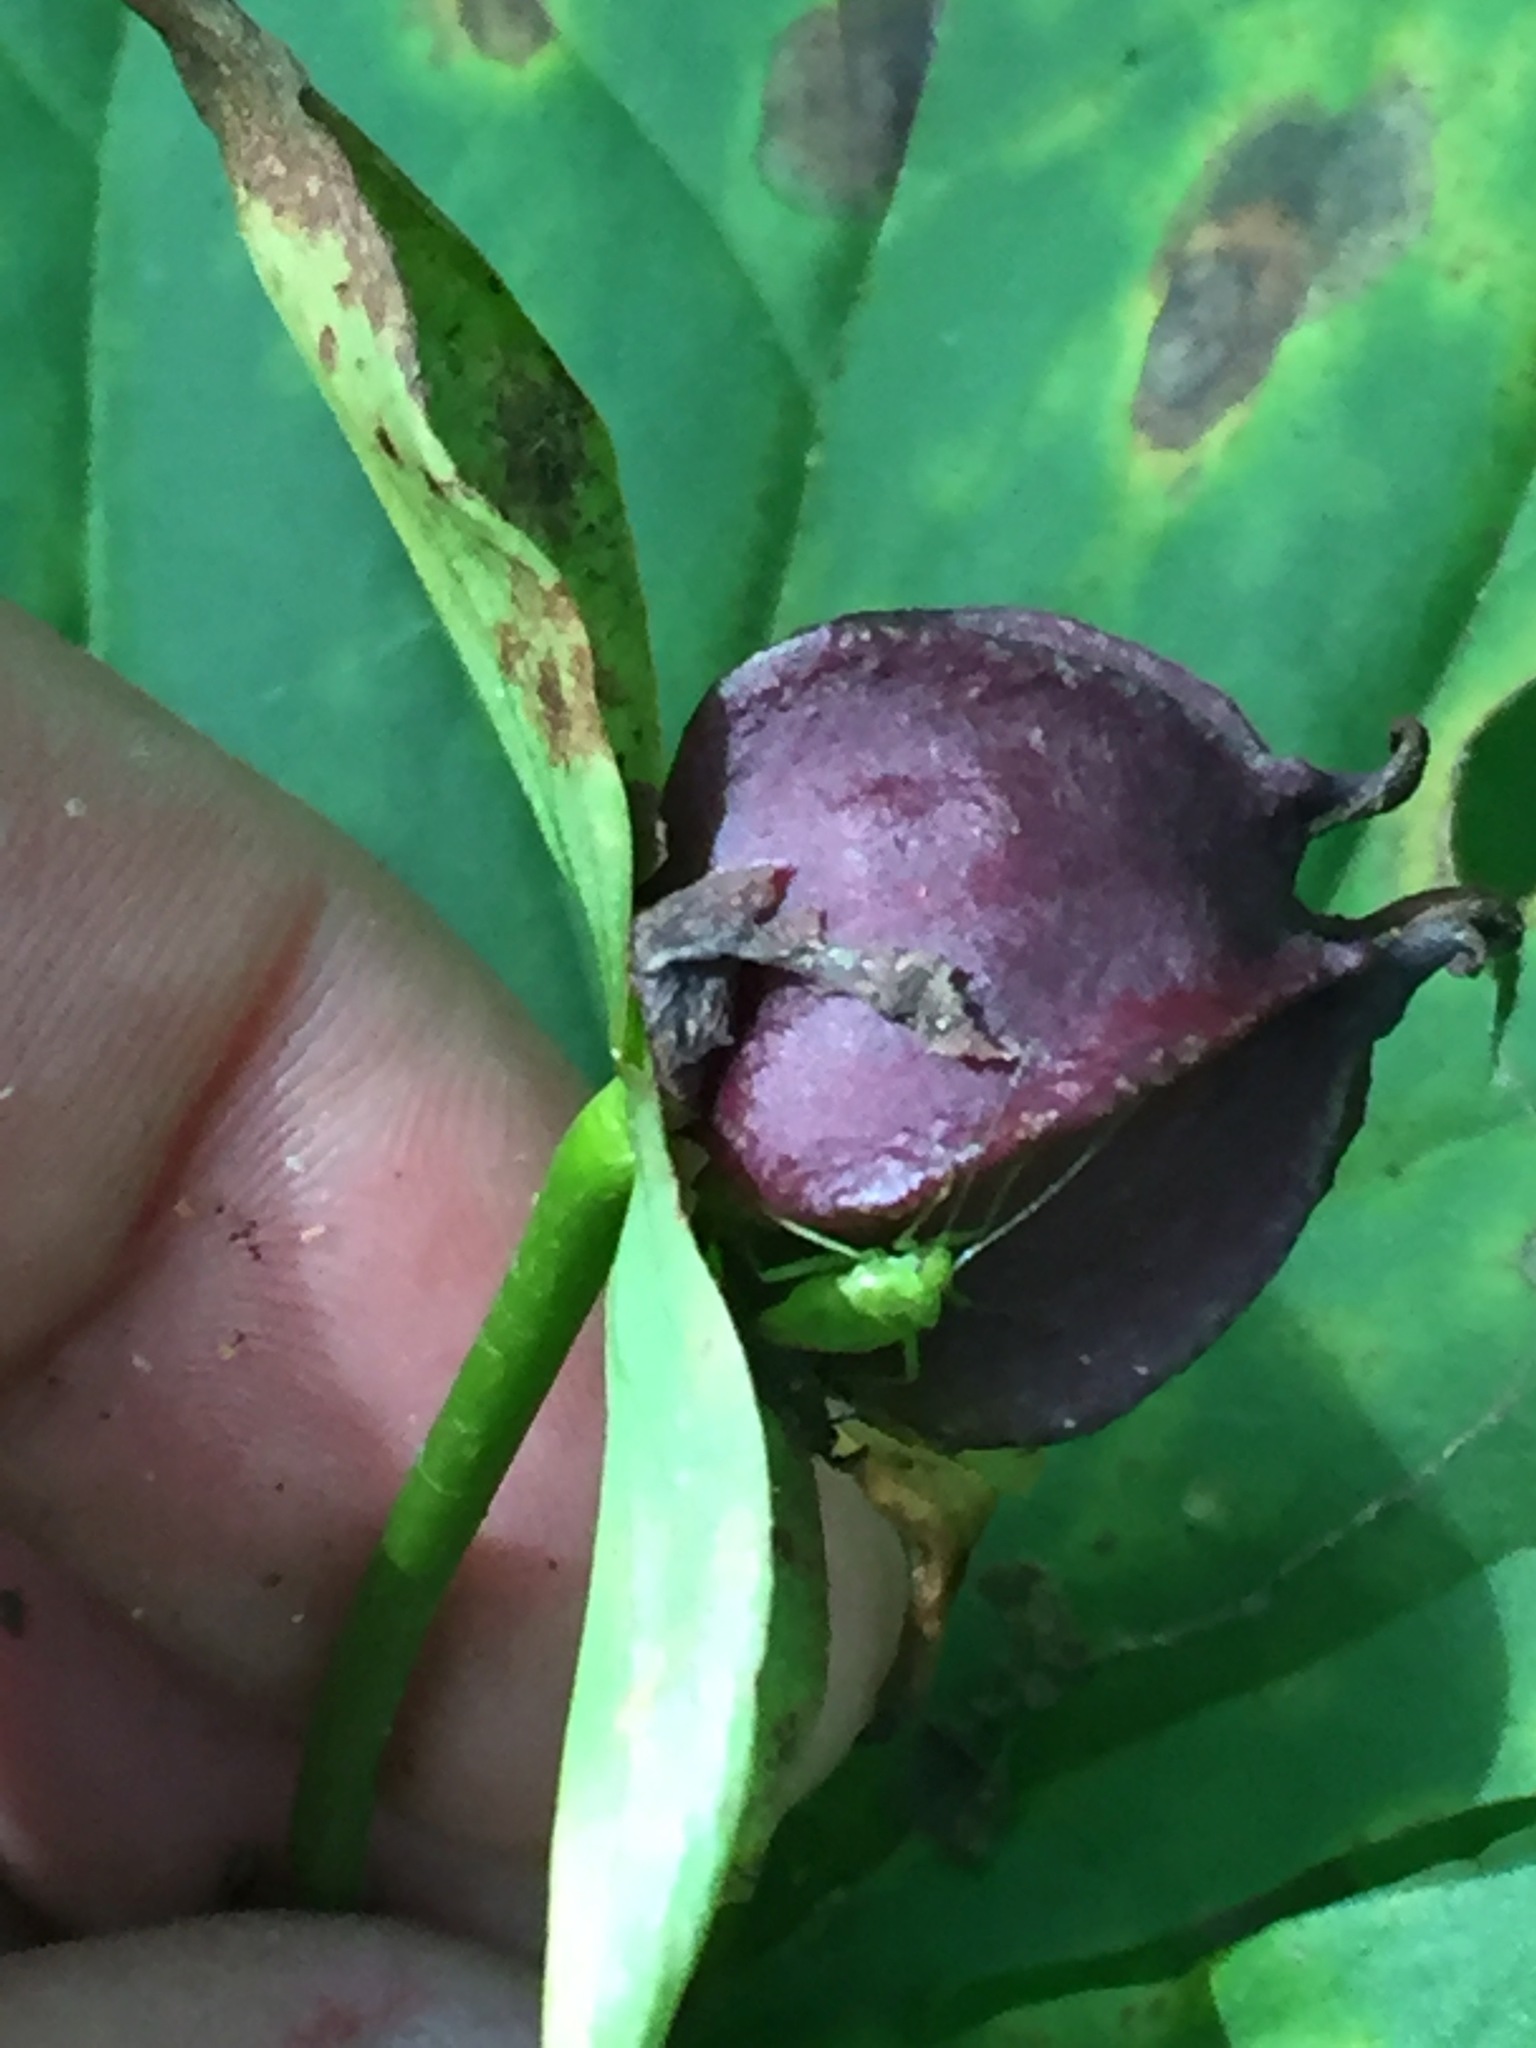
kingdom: Plantae
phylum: Tracheophyta
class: Liliopsida
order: Liliales
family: Melanthiaceae
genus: Trillium
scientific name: Trillium erectum
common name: Purple trillium
